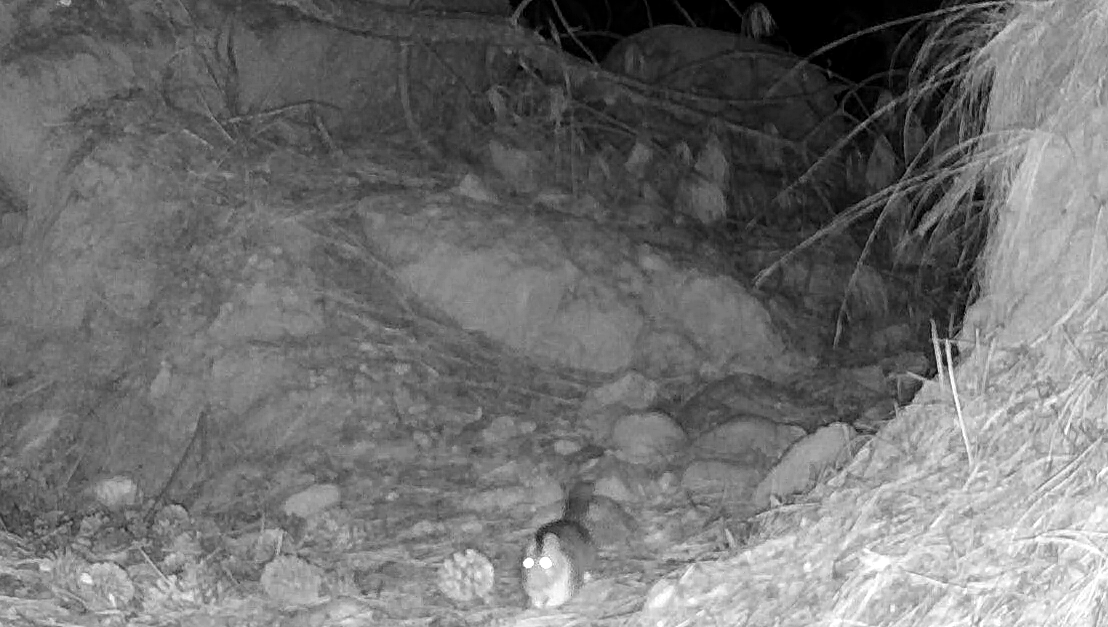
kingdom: Animalia
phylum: Chordata
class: Mammalia
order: Rodentia
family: Cricetidae
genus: Neotoma
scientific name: Neotoma cinerea
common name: Bushy-tailed woodrat
